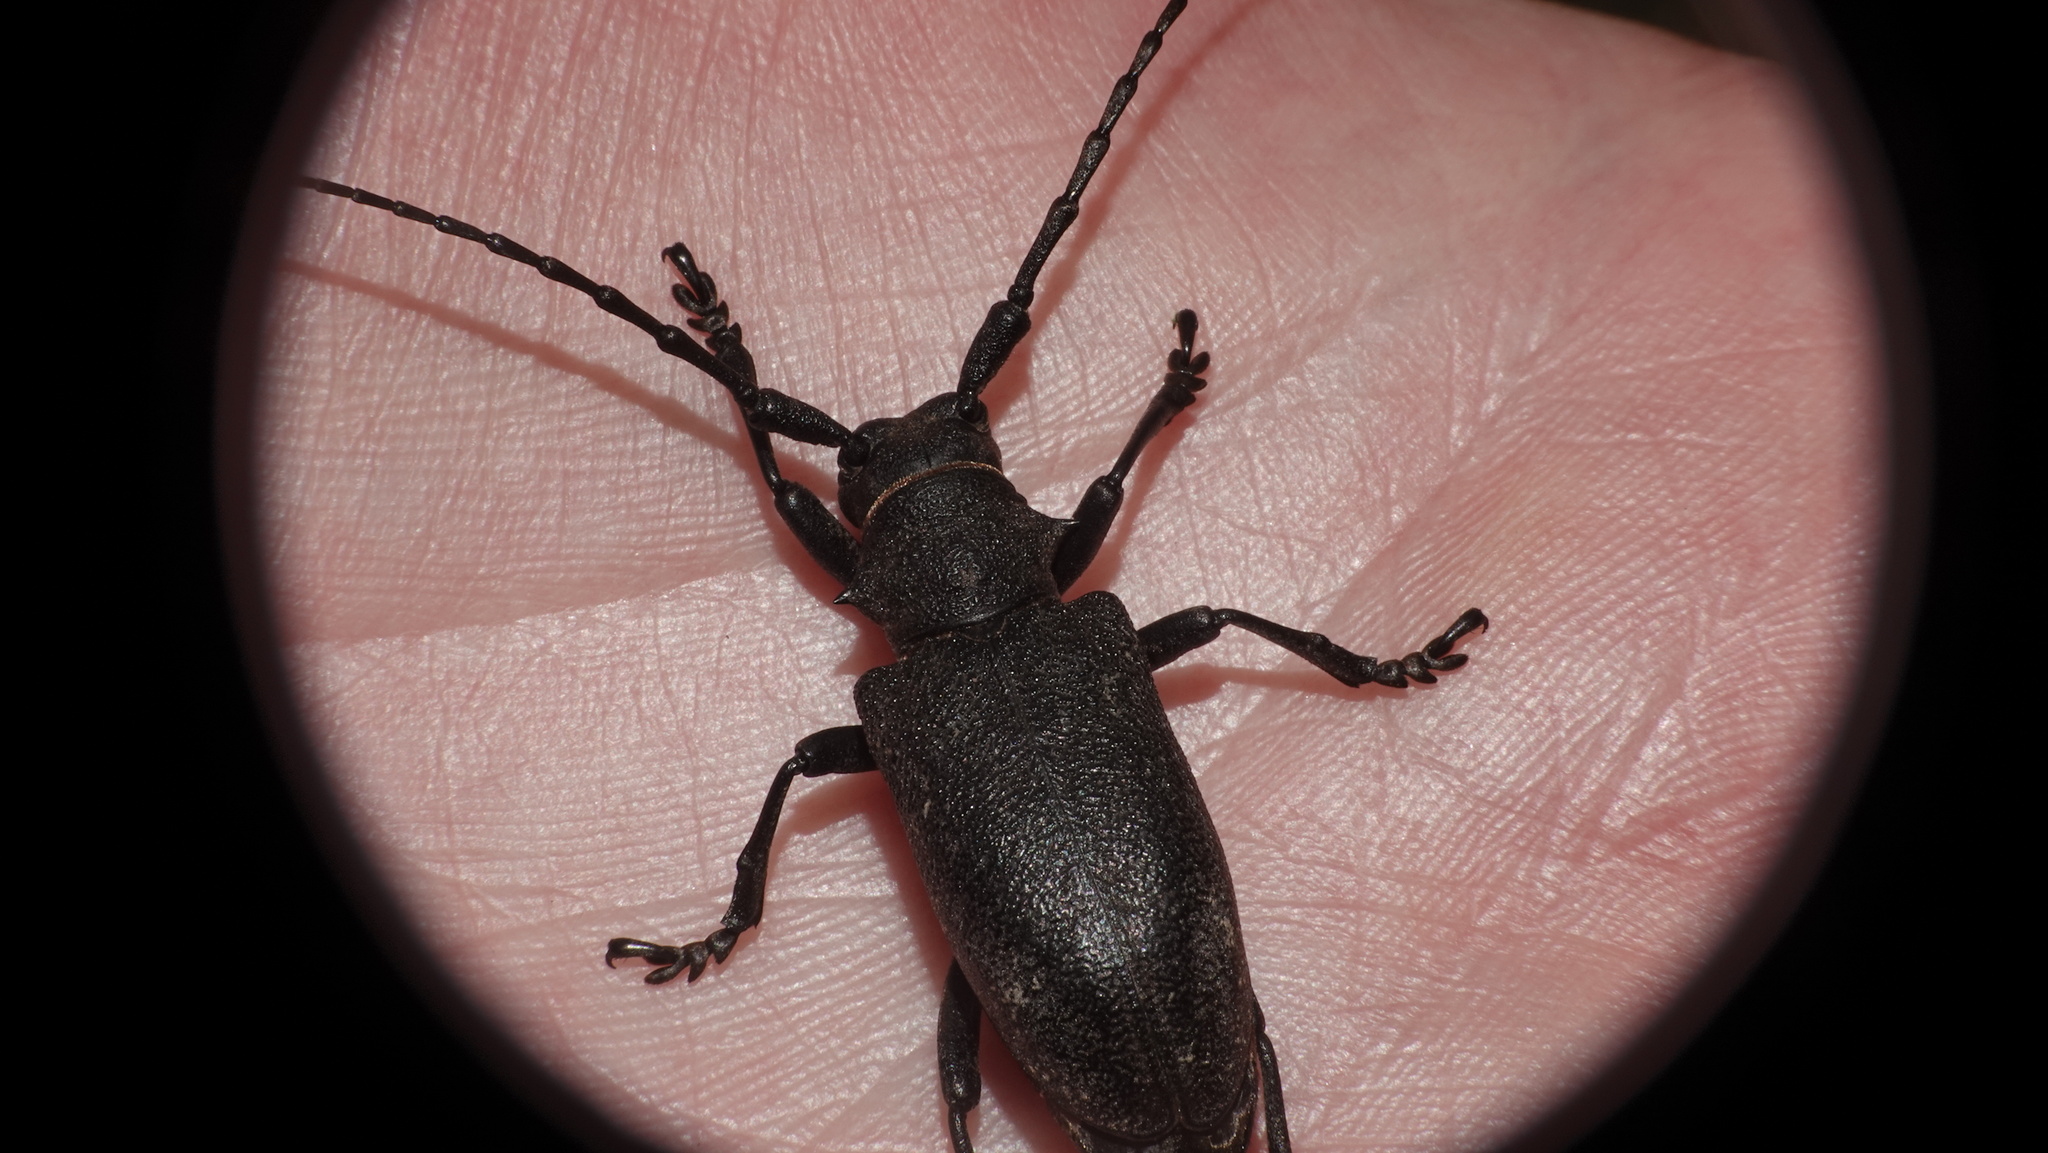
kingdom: Animalia
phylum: Arthropoda
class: Insecta
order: Coleoptera
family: Cerambycidae
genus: Lamia
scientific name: Lamia textor
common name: Weaver beetle
